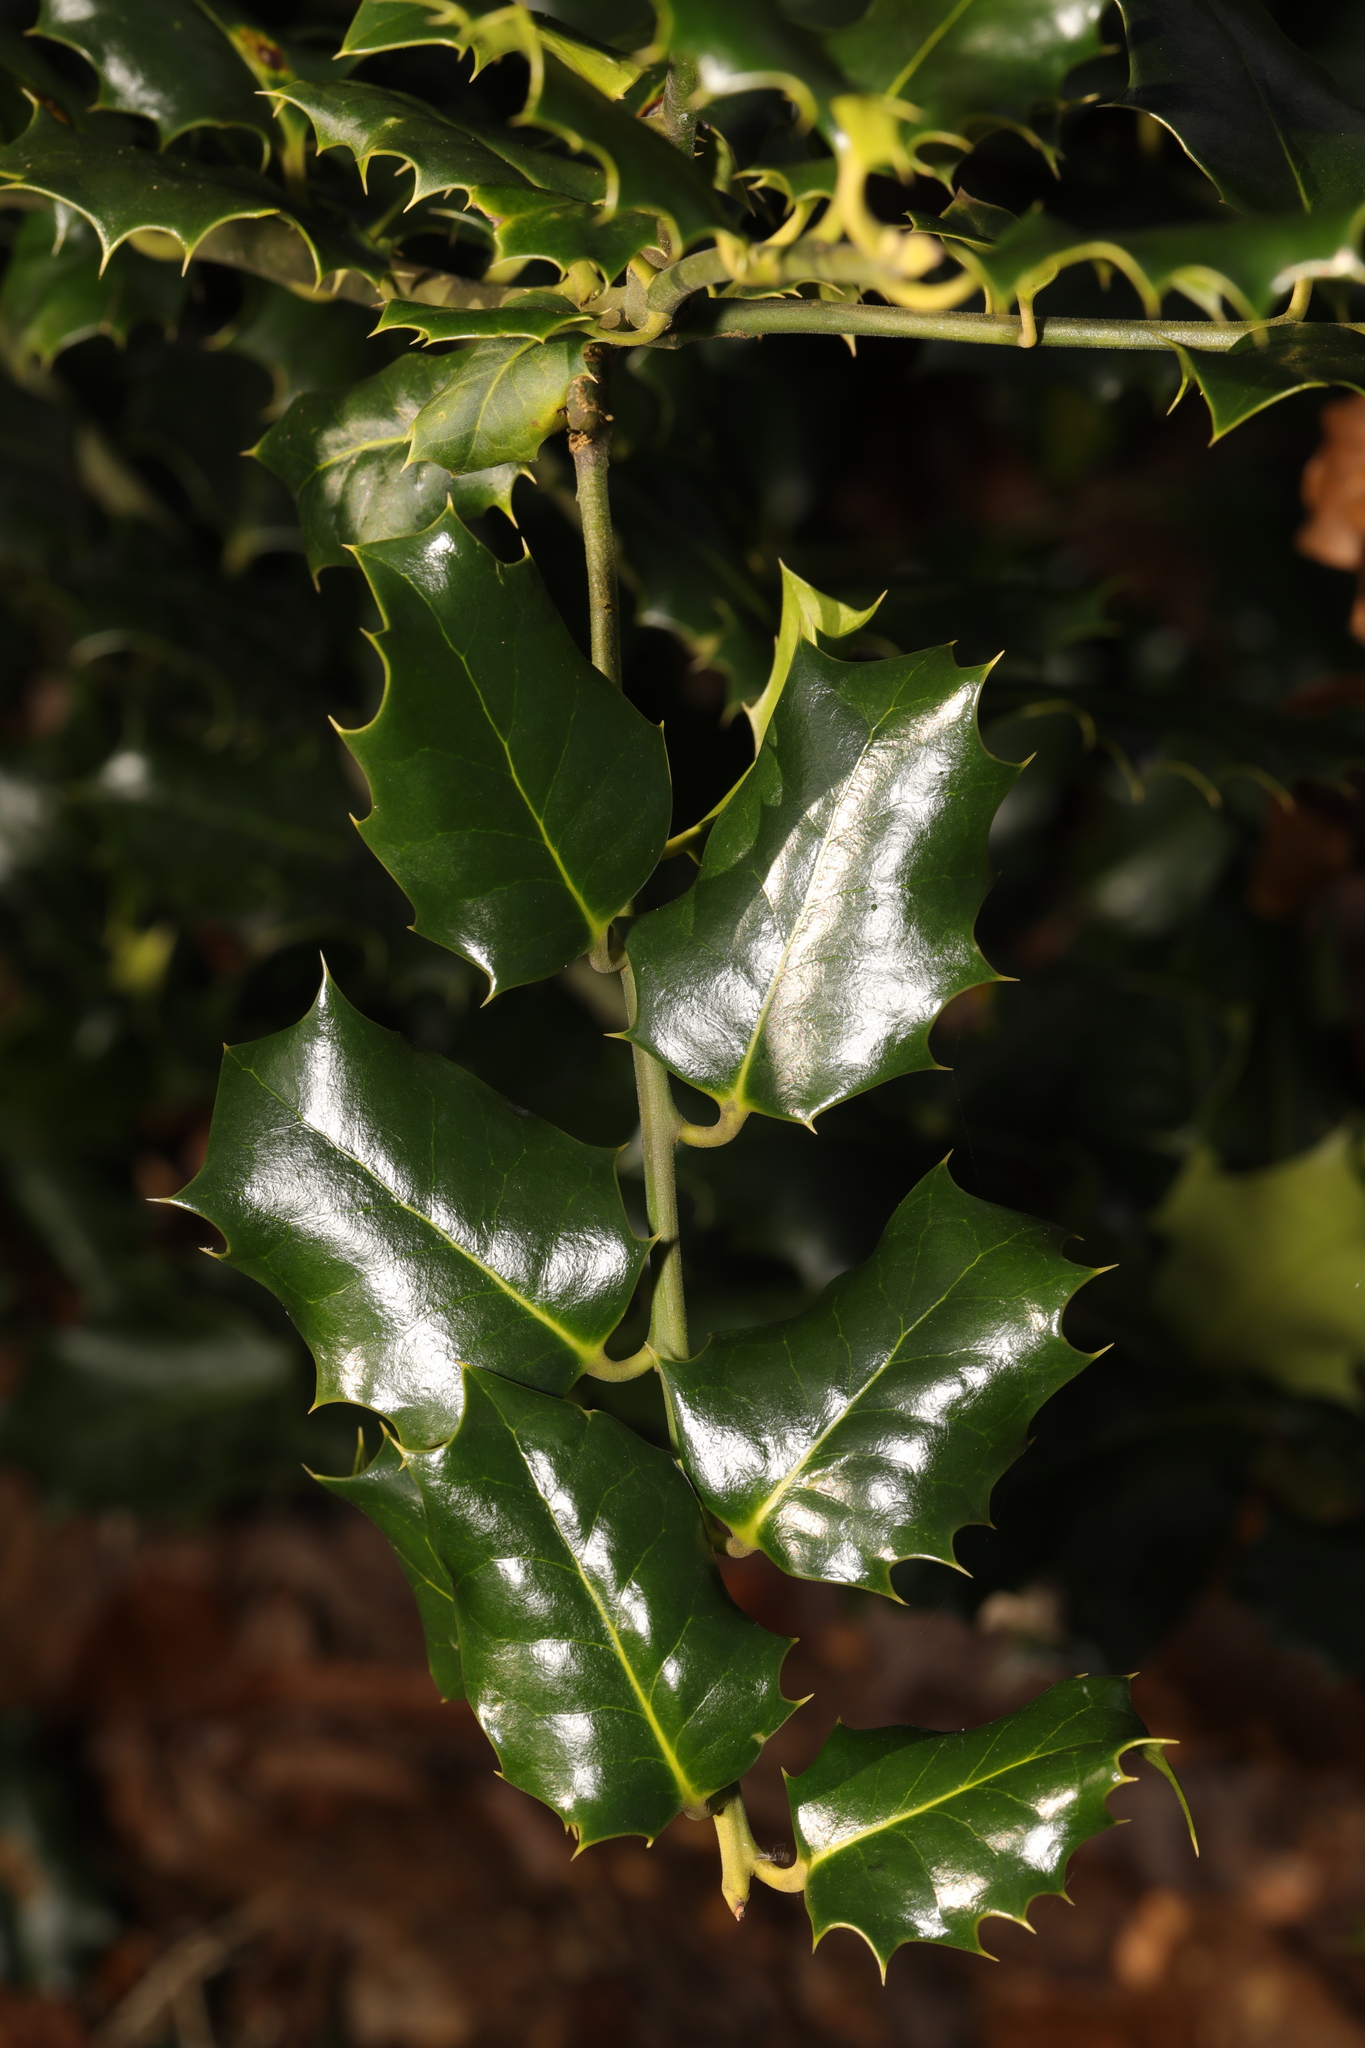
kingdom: Plantae
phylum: Tracheophyta
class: Magnoliopsida
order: Aquifoliales
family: Aquifoliaceae
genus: Ilex
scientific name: Ilex aquifolium
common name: English holly
